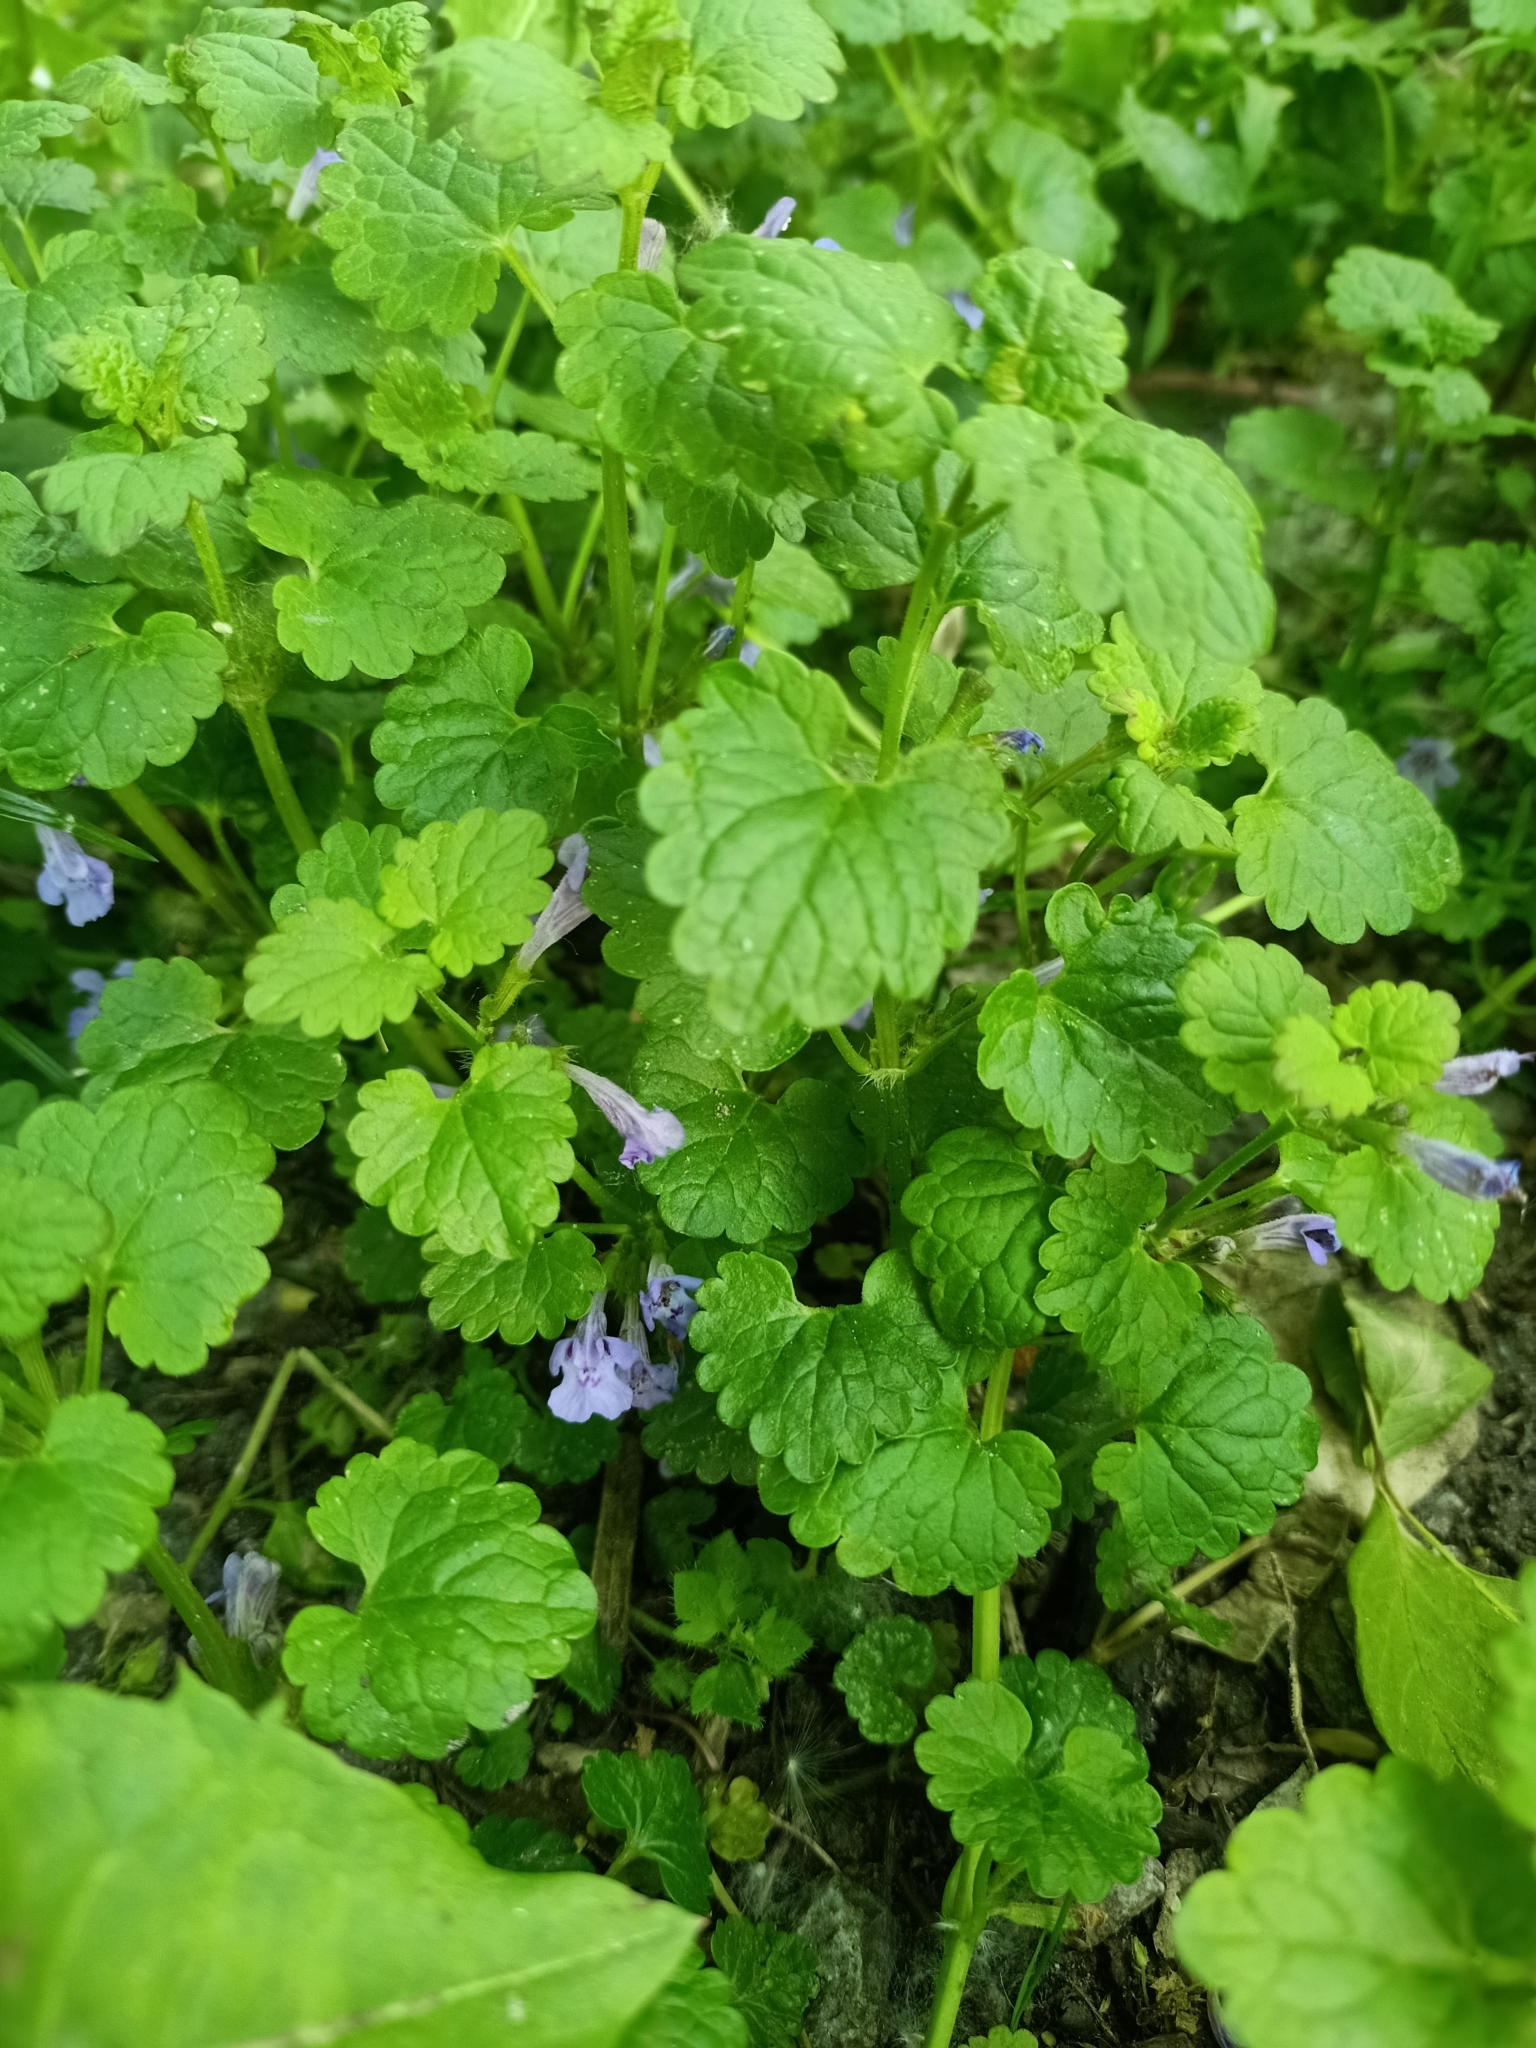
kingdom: Plantae
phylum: Tracheophyta
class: Magnoliopsida
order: Lamiales
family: Lamiaceae
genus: Glechoma
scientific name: Glechoma hederacea
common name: Ground ivy
